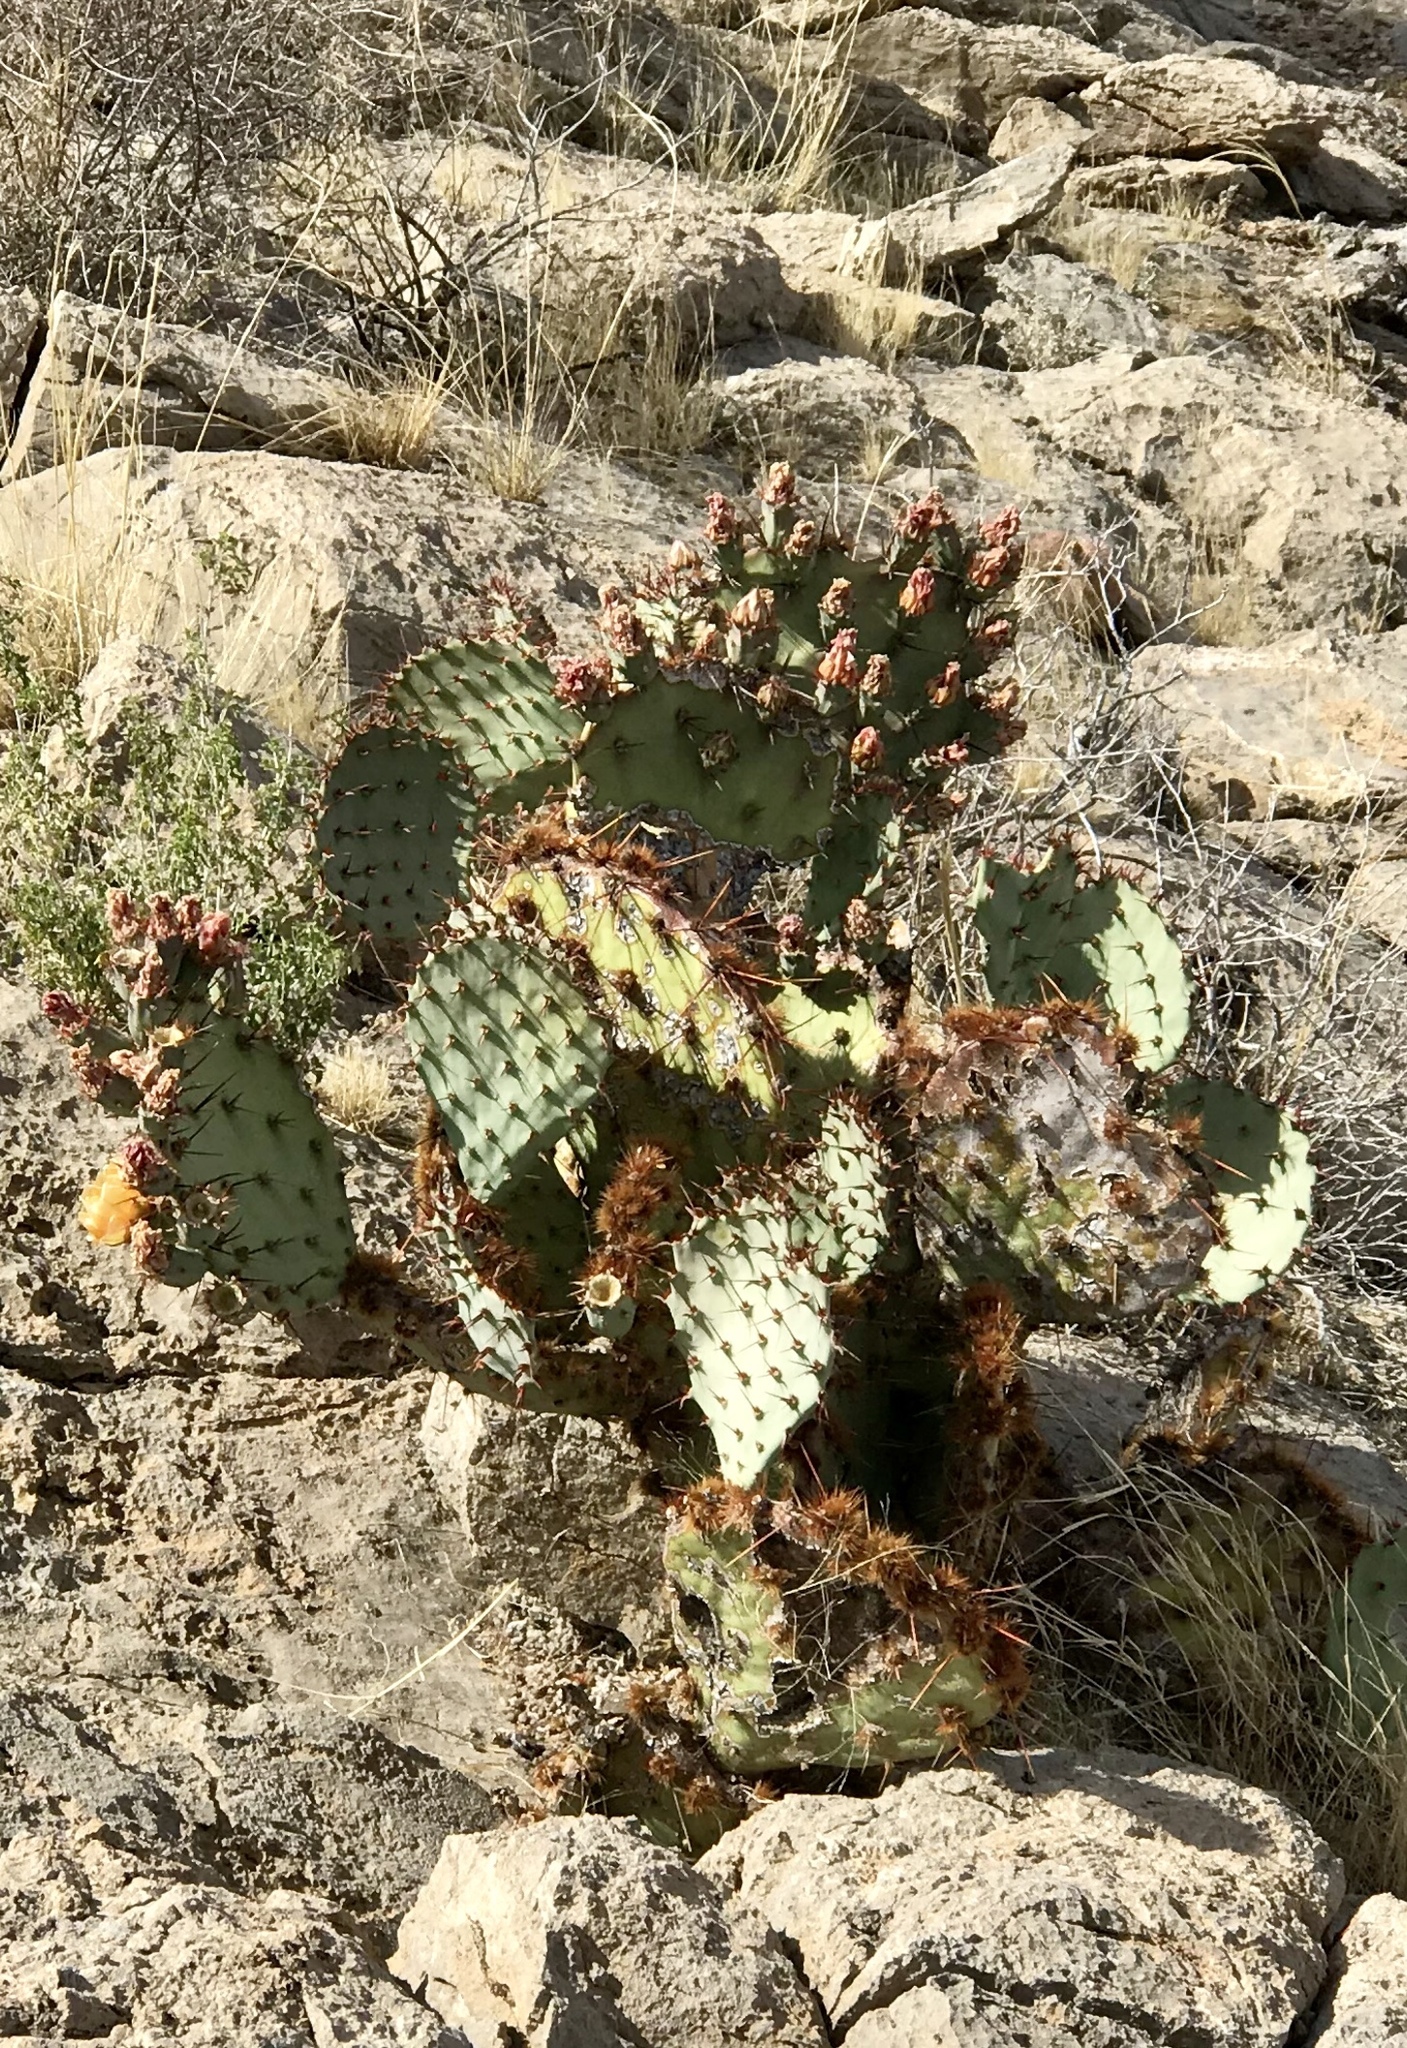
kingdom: Plantae
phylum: Tracheophyta
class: Magnoliopsida
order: Caryophyllales
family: Cactaceae
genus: Opuntia
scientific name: Opuntia phaeacantha
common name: New mexico prickly-pear
